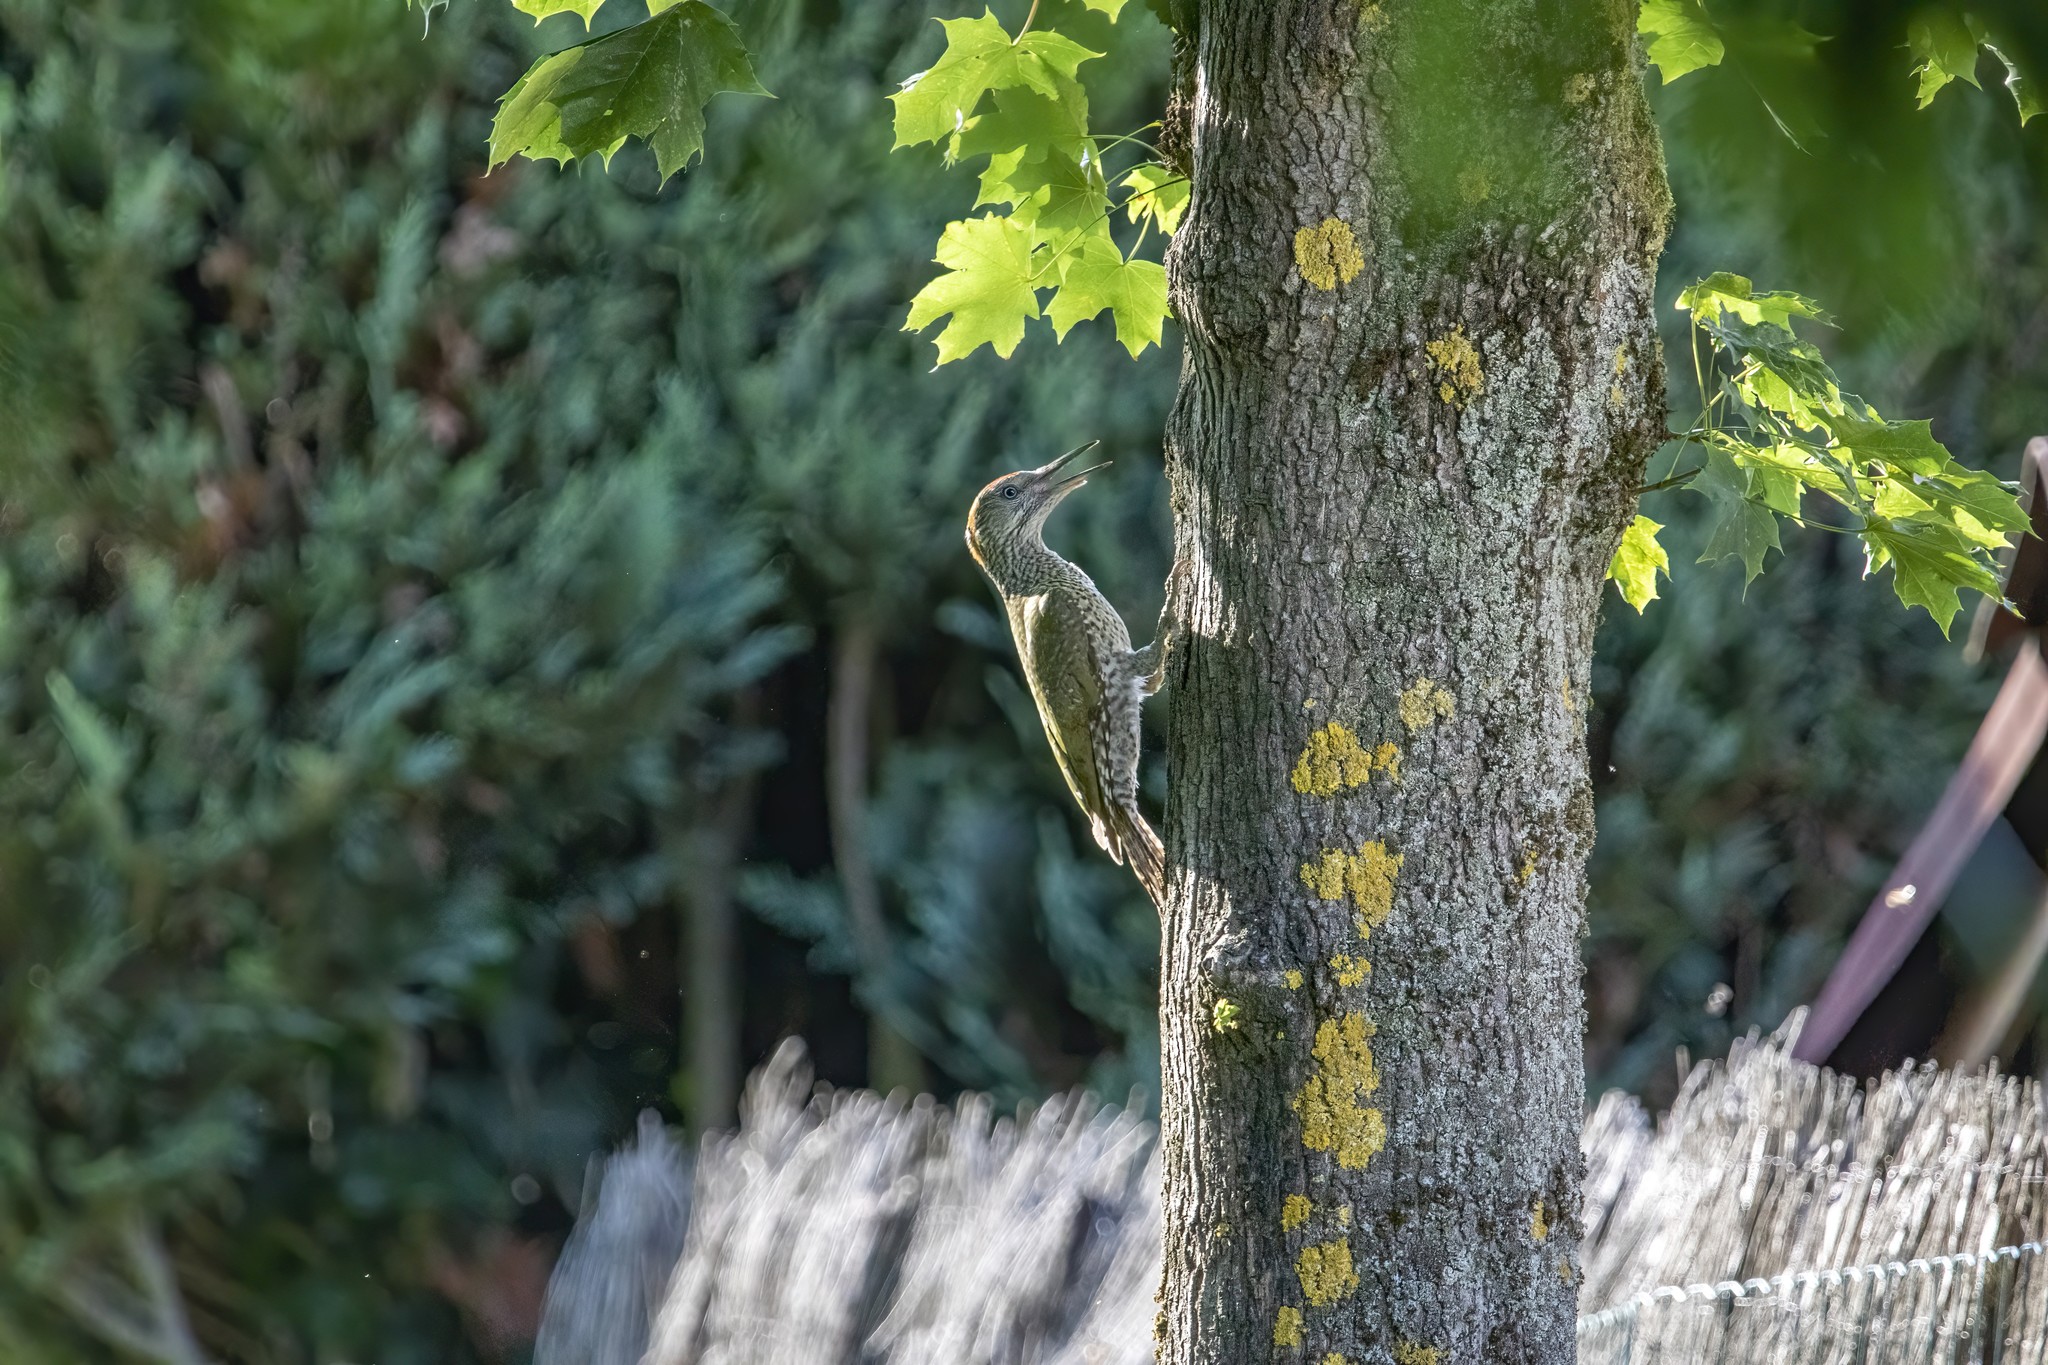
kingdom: Animalia
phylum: Chordata
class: Aves
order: Piciformes
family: Picidae
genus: Picus
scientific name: Picus viridis
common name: European green woodpecker
